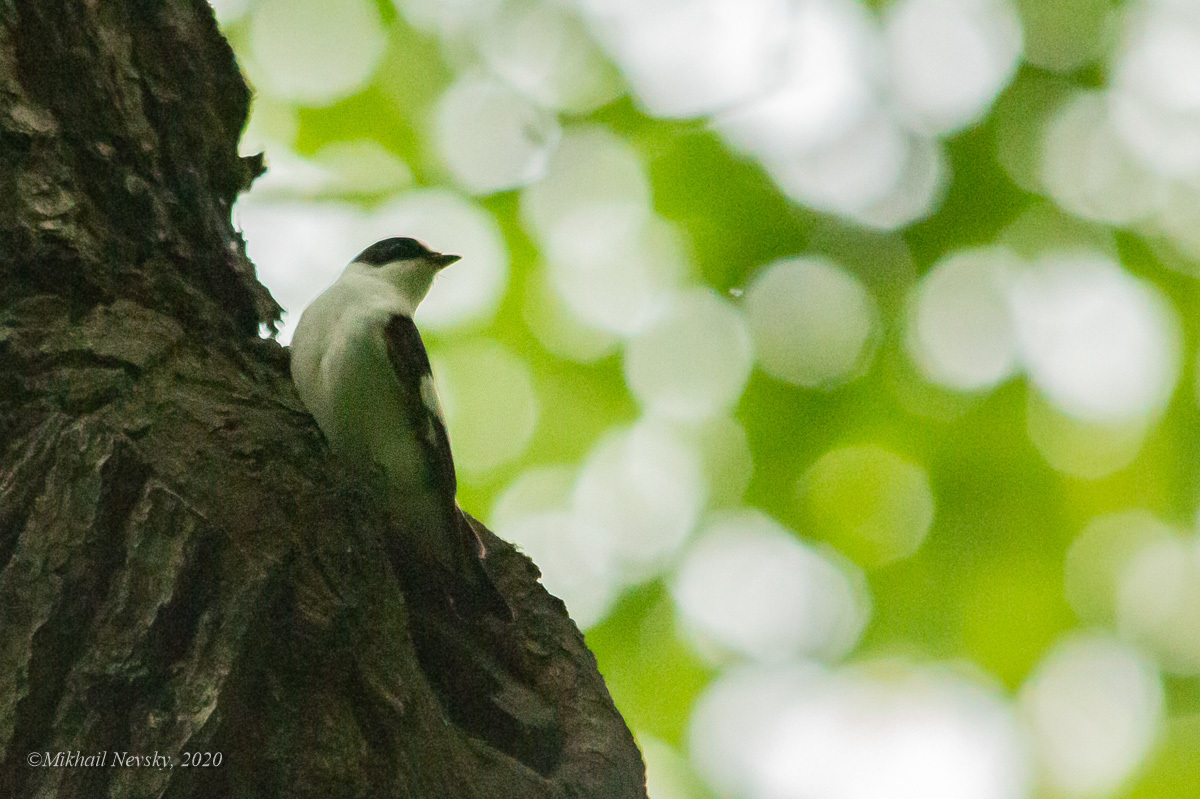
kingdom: Animalia
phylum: Chordata
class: Aves
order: Passeriformes
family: Muscicapidae
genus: Ficedula
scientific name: Ficedula albicollis
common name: Collared flycatcher
